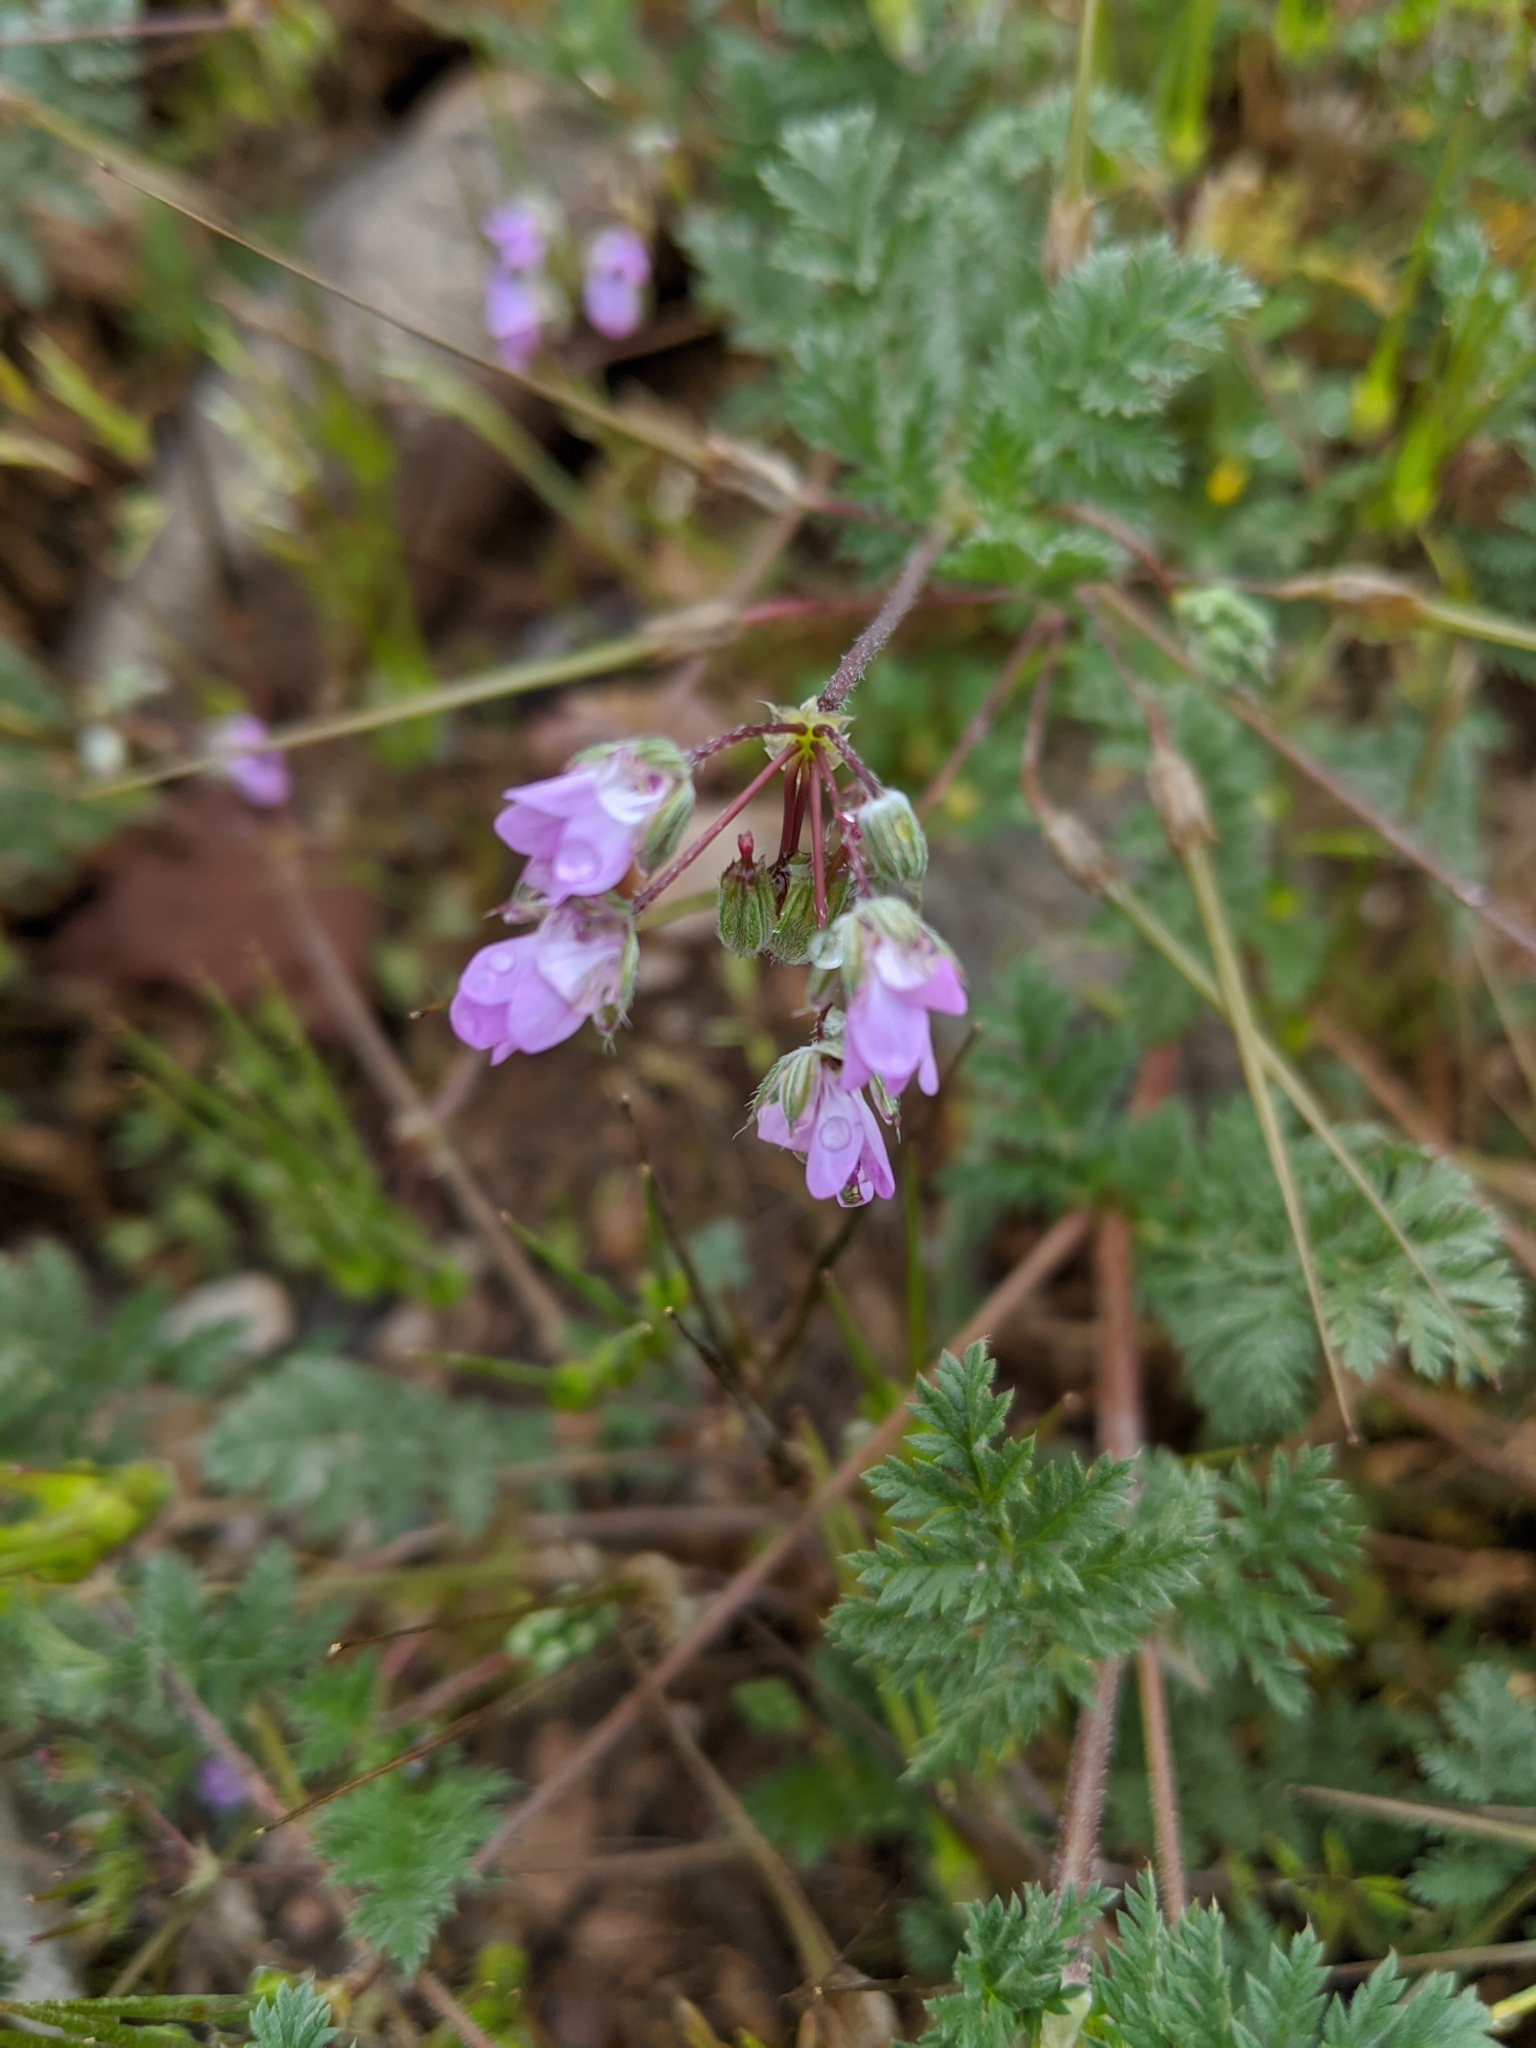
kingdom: Plantae
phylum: Tracheophyta
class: Magnoliopsida
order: Geraniales
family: Geraniaceae
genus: Erodium
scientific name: Erodium cicutarium
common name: Common stork's-bill
